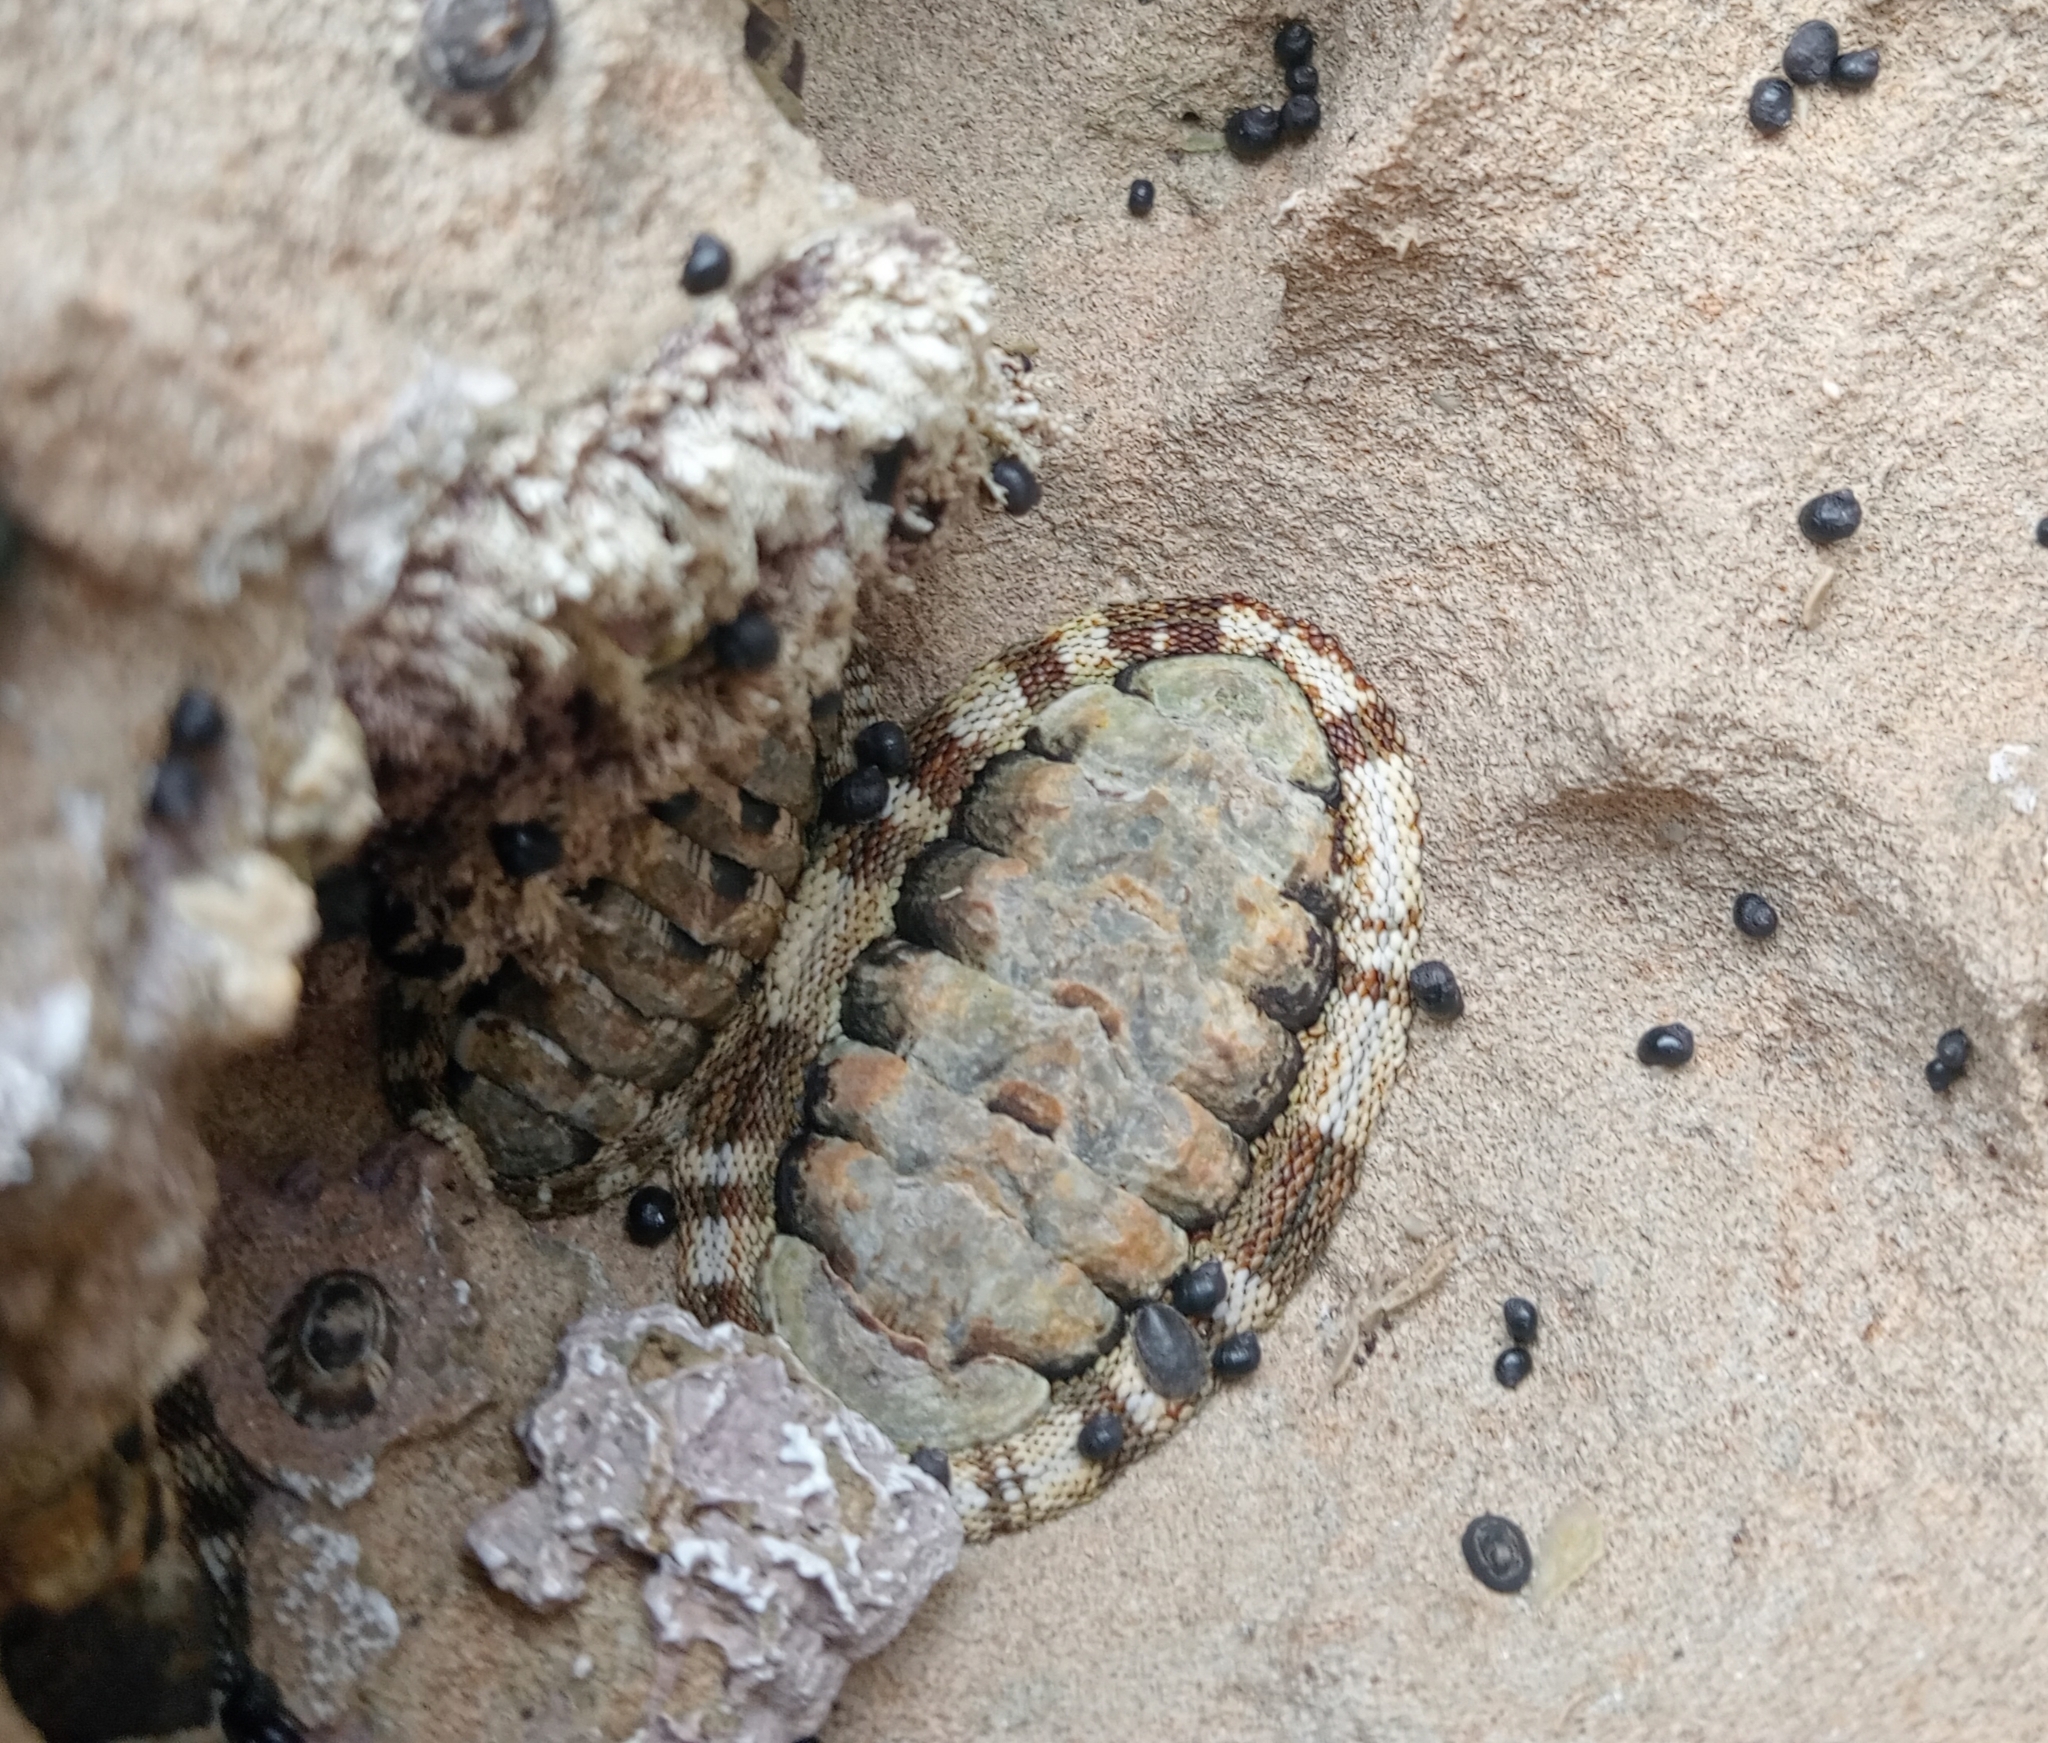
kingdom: Animalia
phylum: Mollusca
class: Polyplacophora
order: Chitonida
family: Chitonidae
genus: Sypharochiton
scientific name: Sypharochiton pelliserpentis
